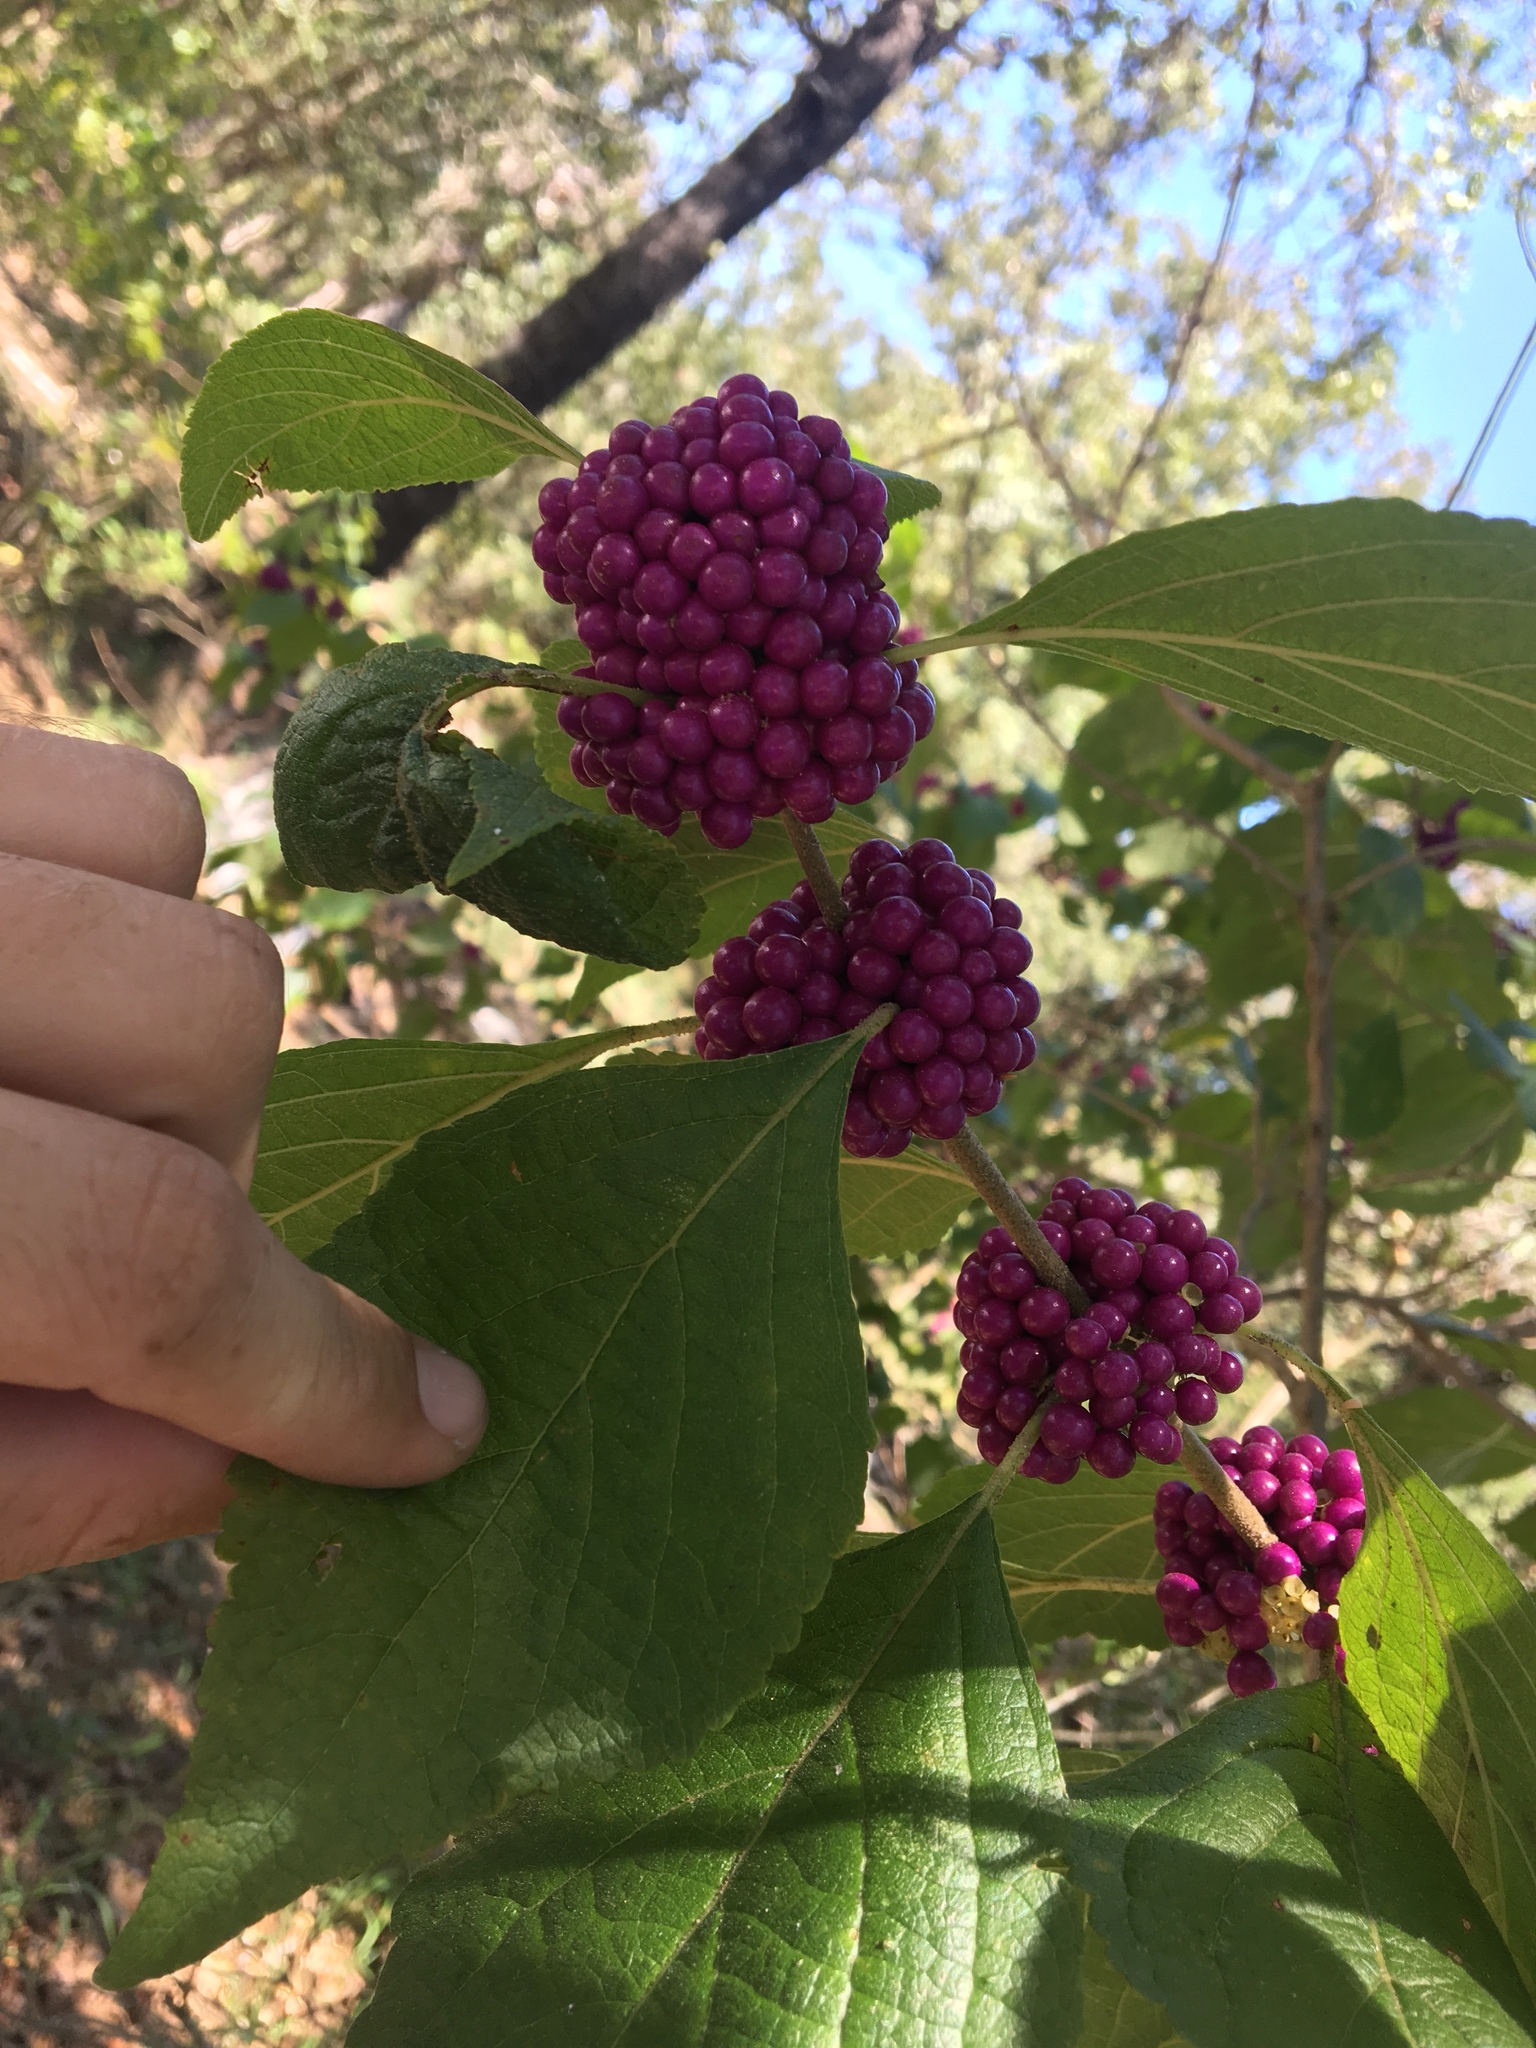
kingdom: Plantae
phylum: Tracheophyta
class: Magnoliopsida
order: Lamiales
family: Lamiaceae
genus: Callicarpa
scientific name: Callicarpa americana
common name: American beautyberry
